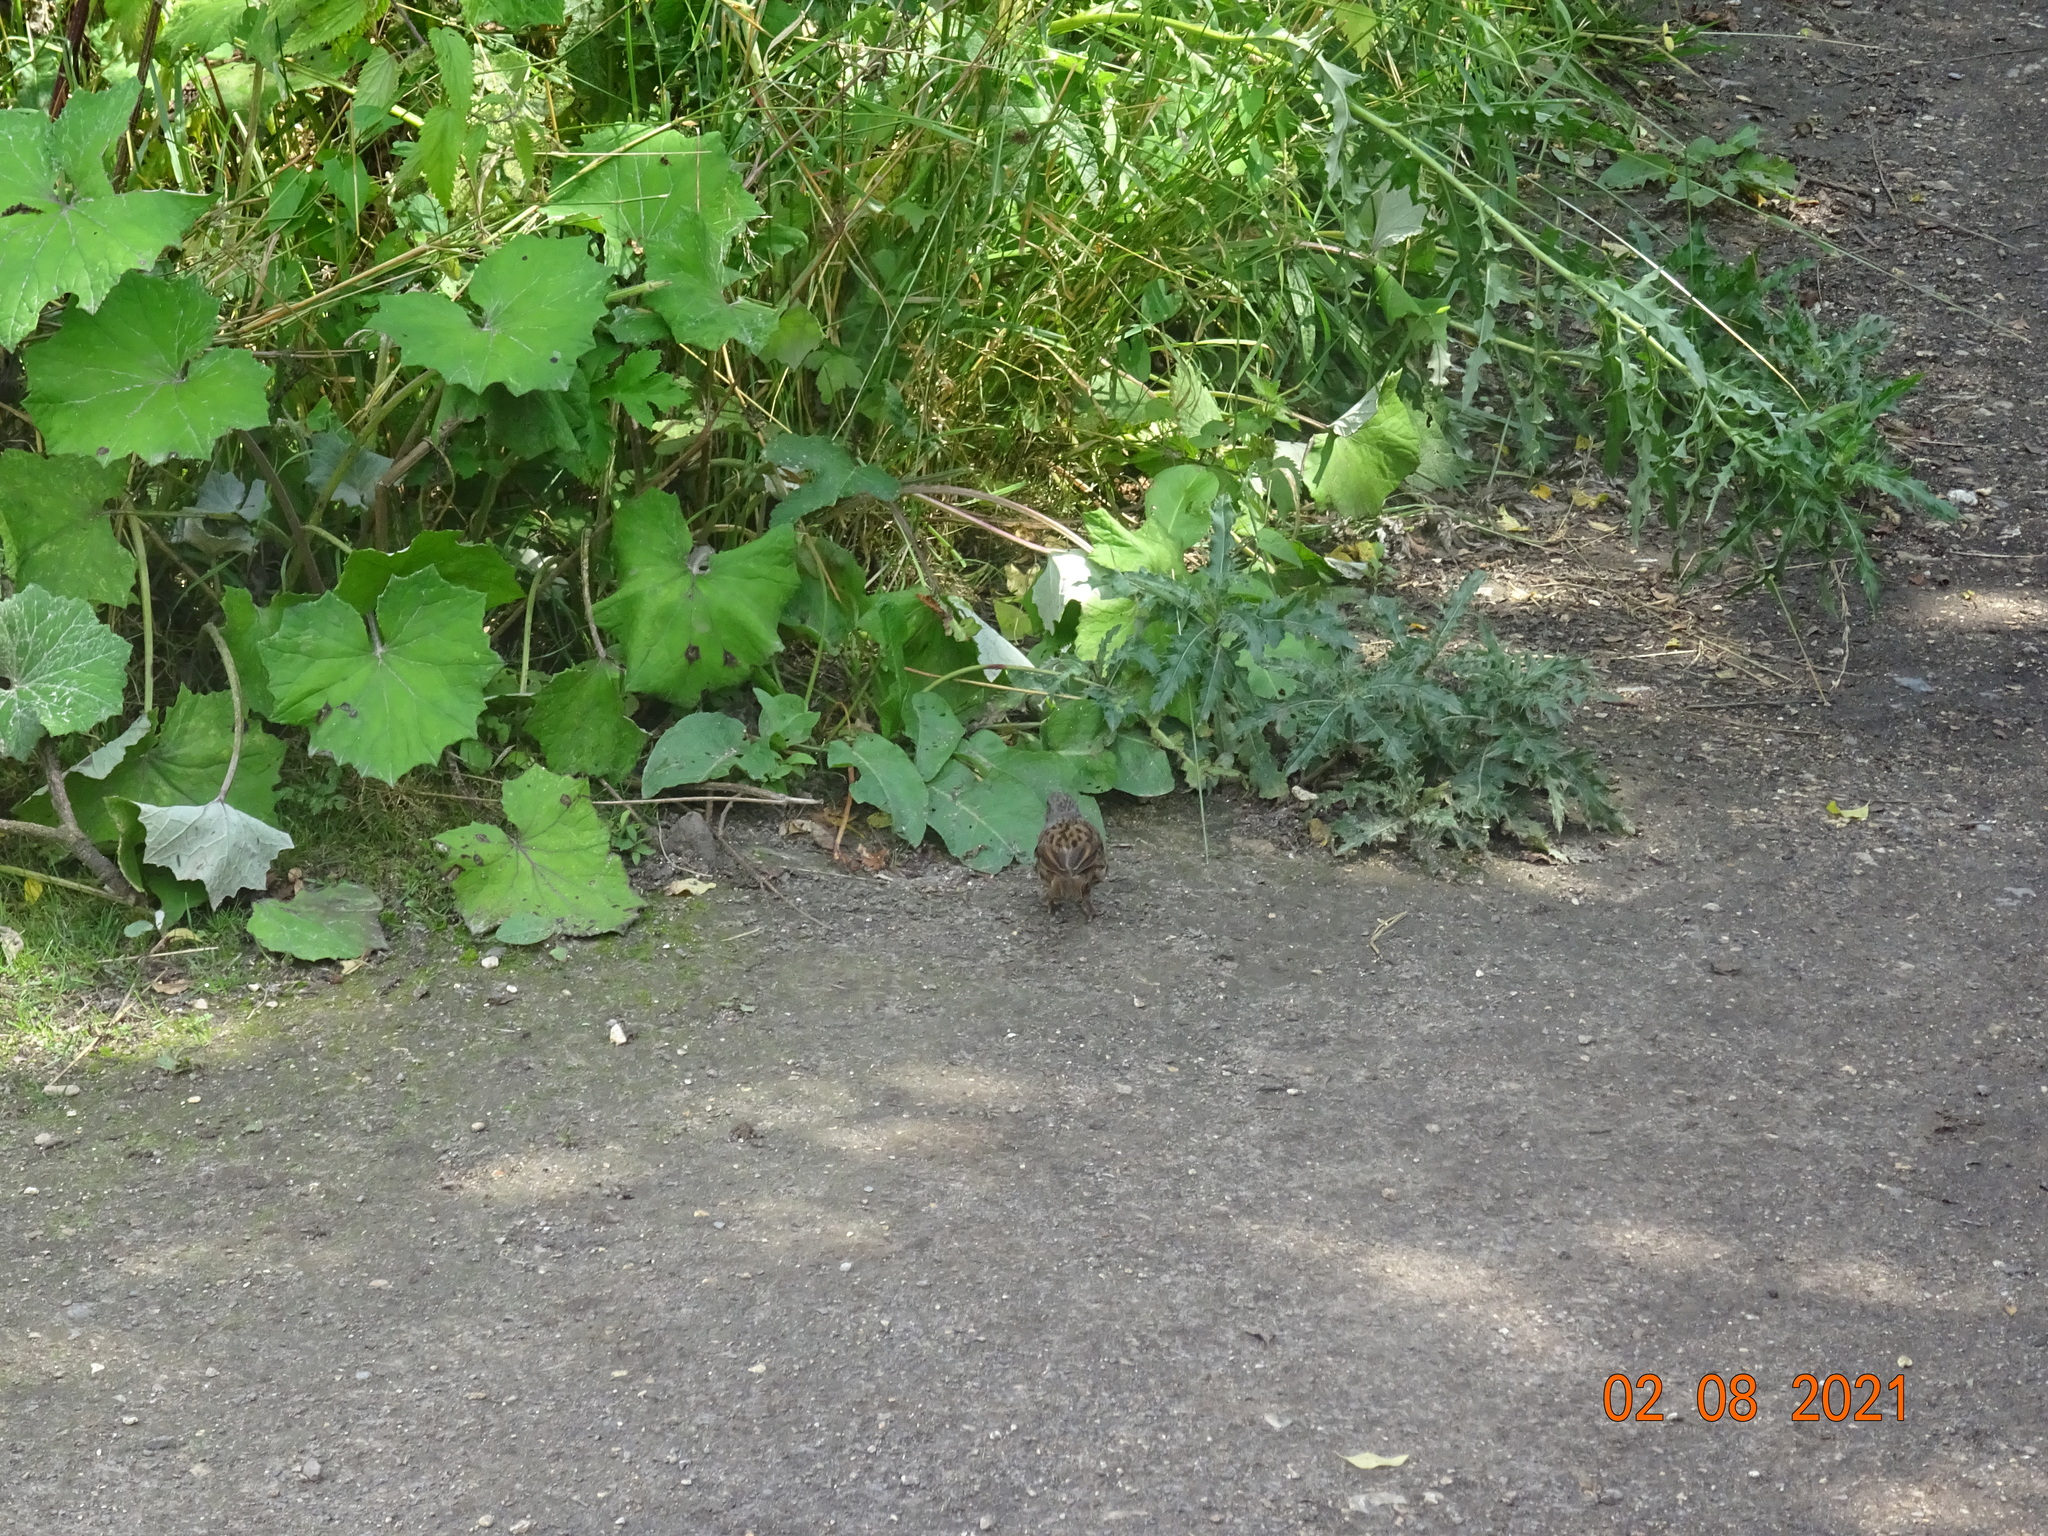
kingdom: Animalia
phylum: Chordata
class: Aves
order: Passeriformes
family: Prunellidae
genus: Prunella
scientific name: Prunella modularis
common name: Dunnock
